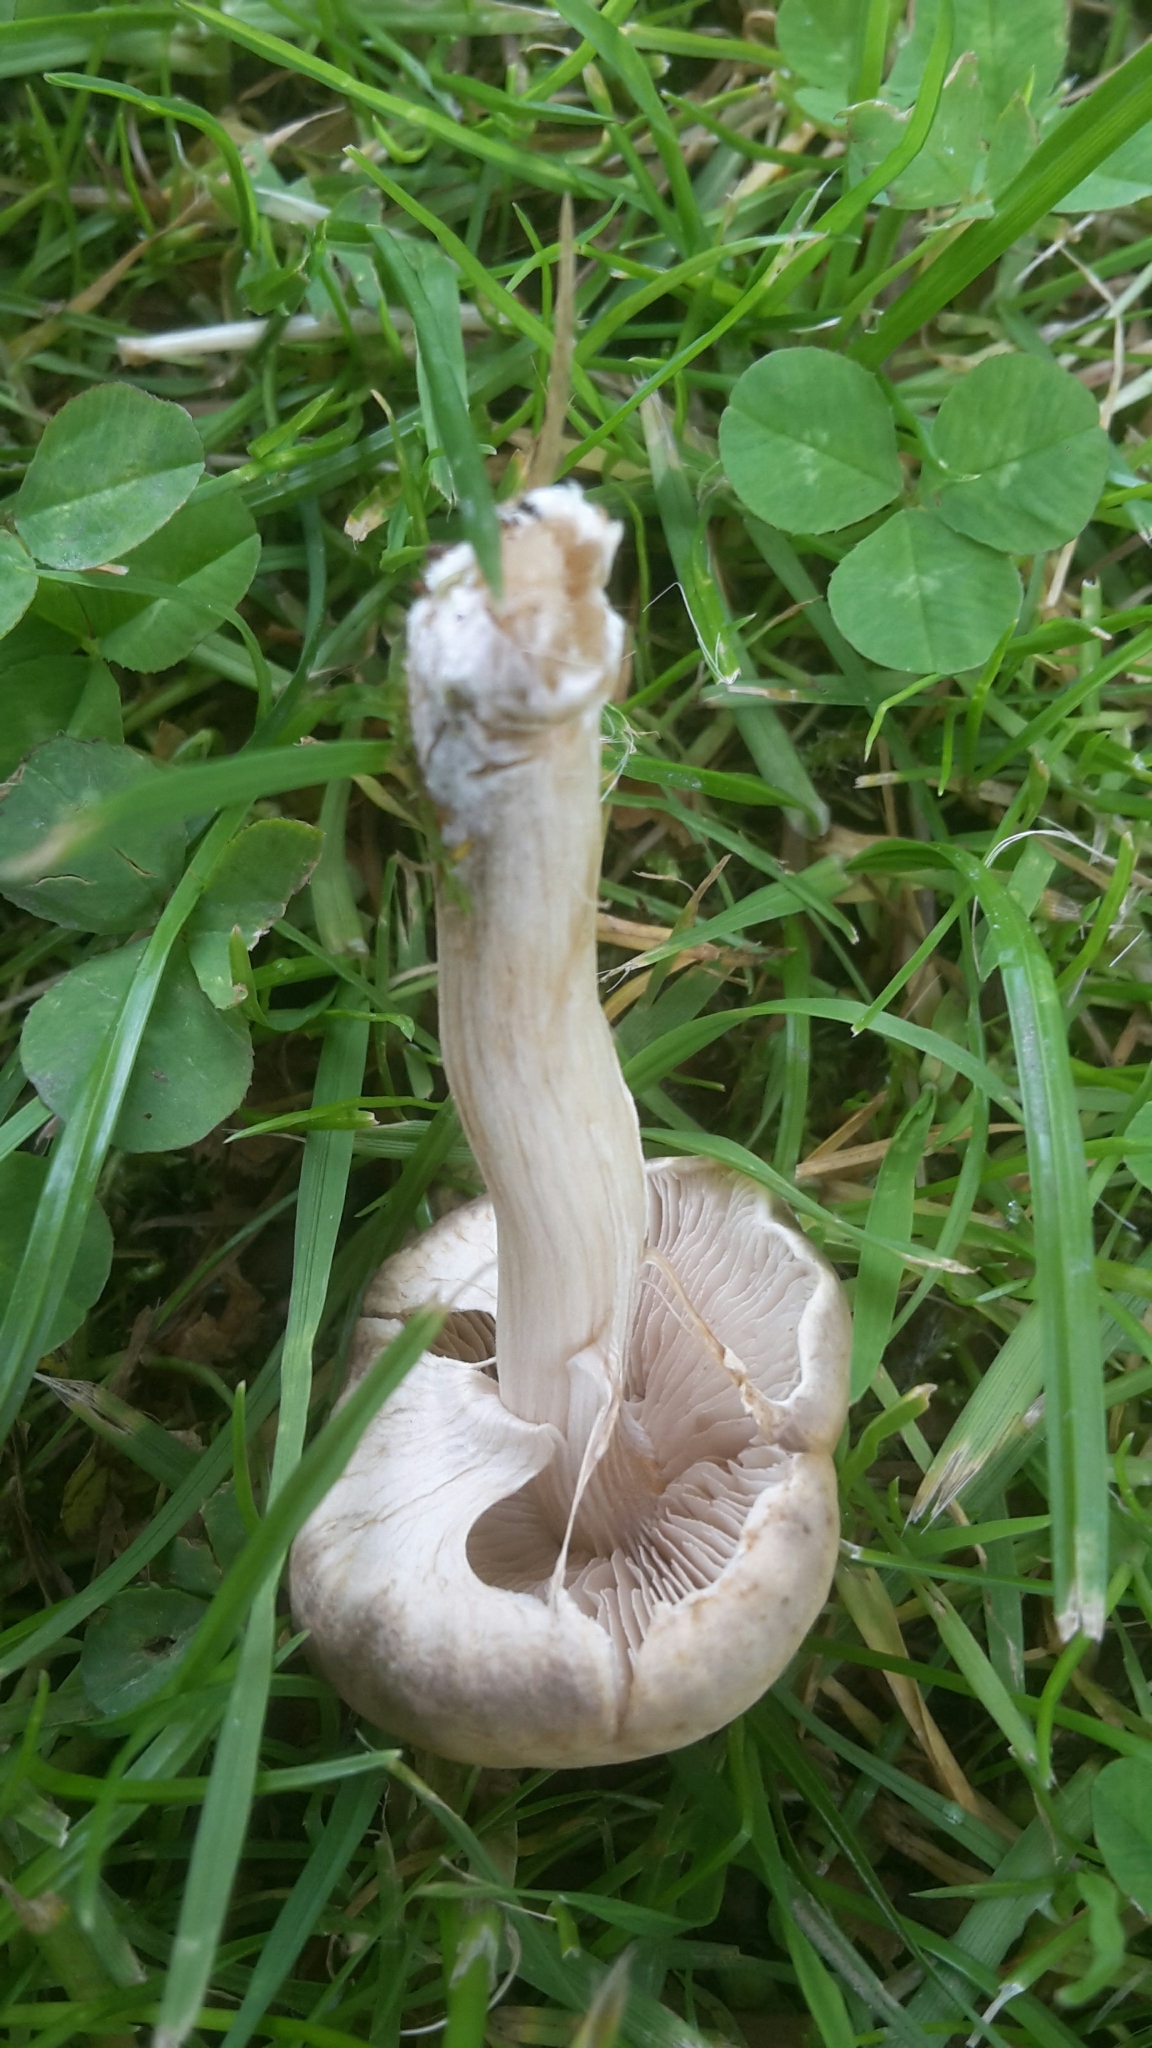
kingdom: Fungi
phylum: Basidiomycota
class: Agaricomycetes
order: Agaricales
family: Strophariaceae
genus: Agrocybe
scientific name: Agrocybe praecox
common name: Spring fieldcap
